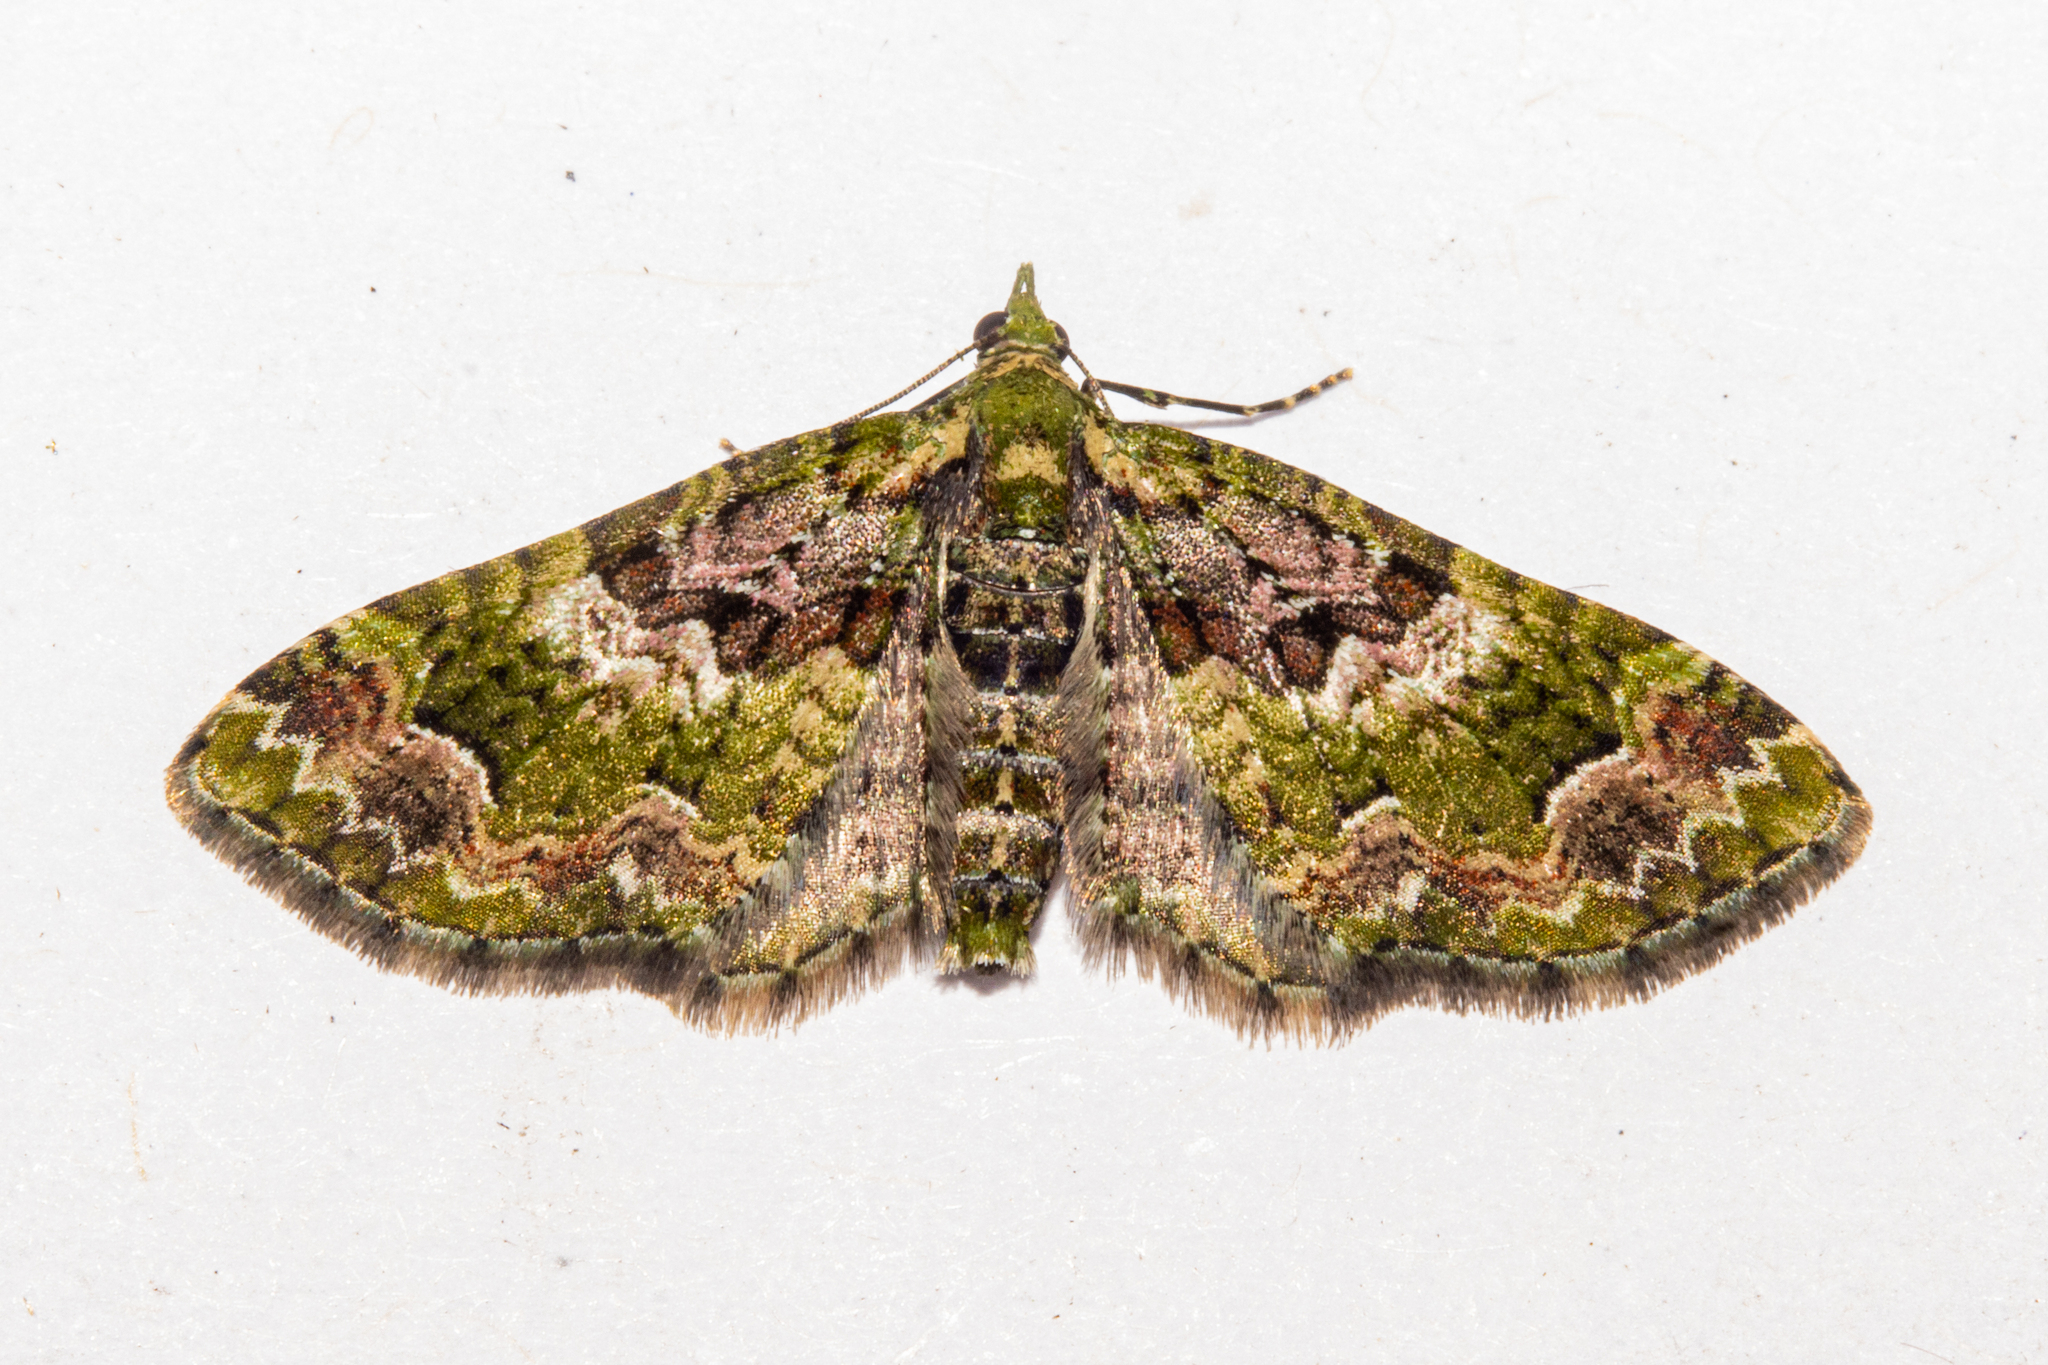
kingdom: Animalia
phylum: Arthropoda
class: Insecta
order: Lepidoptera
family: Geometridae
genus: Pasiphila
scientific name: Pasiphila punicea
